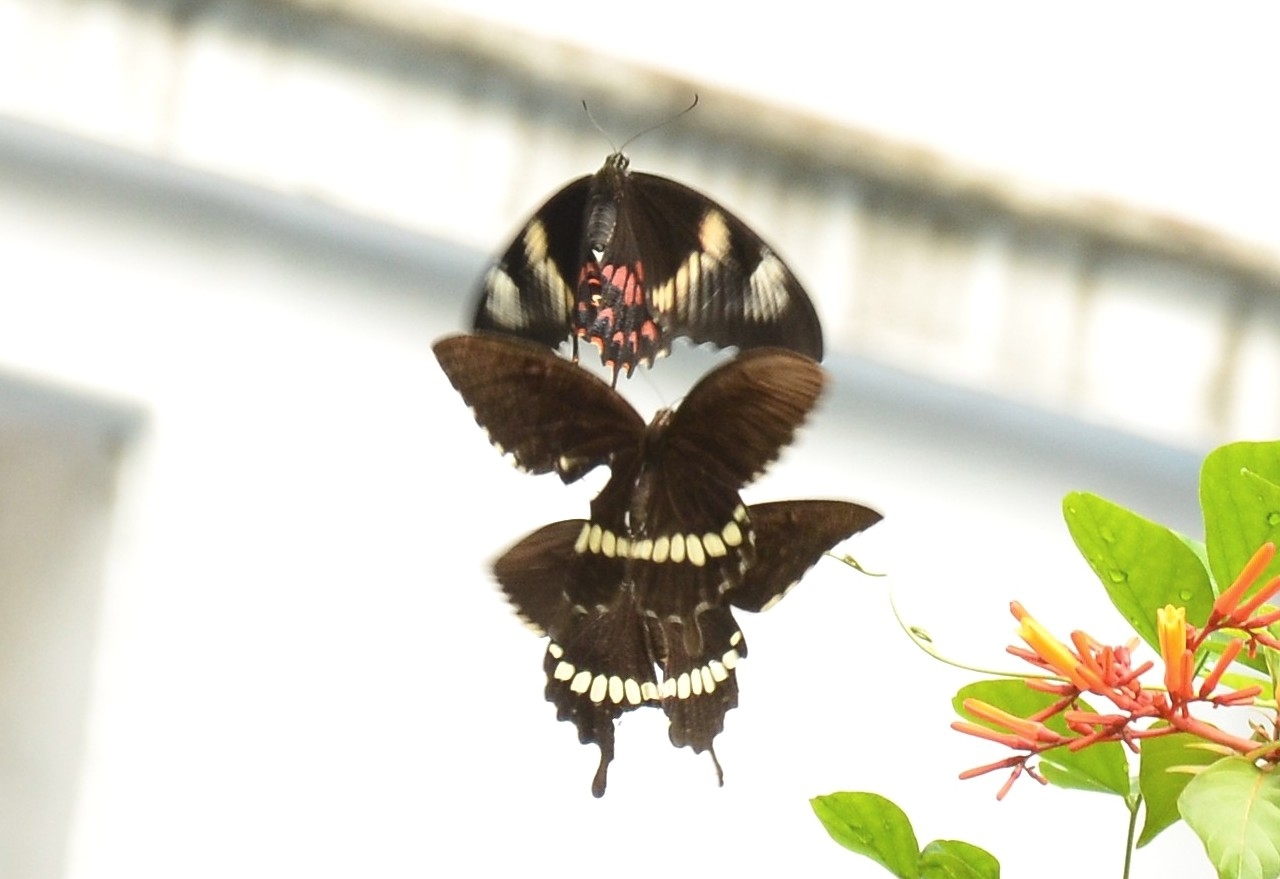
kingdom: Animalia
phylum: Arthropoda
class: Insecta
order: Lepidoptera
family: Papilionidae
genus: Papilio
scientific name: Papilio polytes
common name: Common mormon
